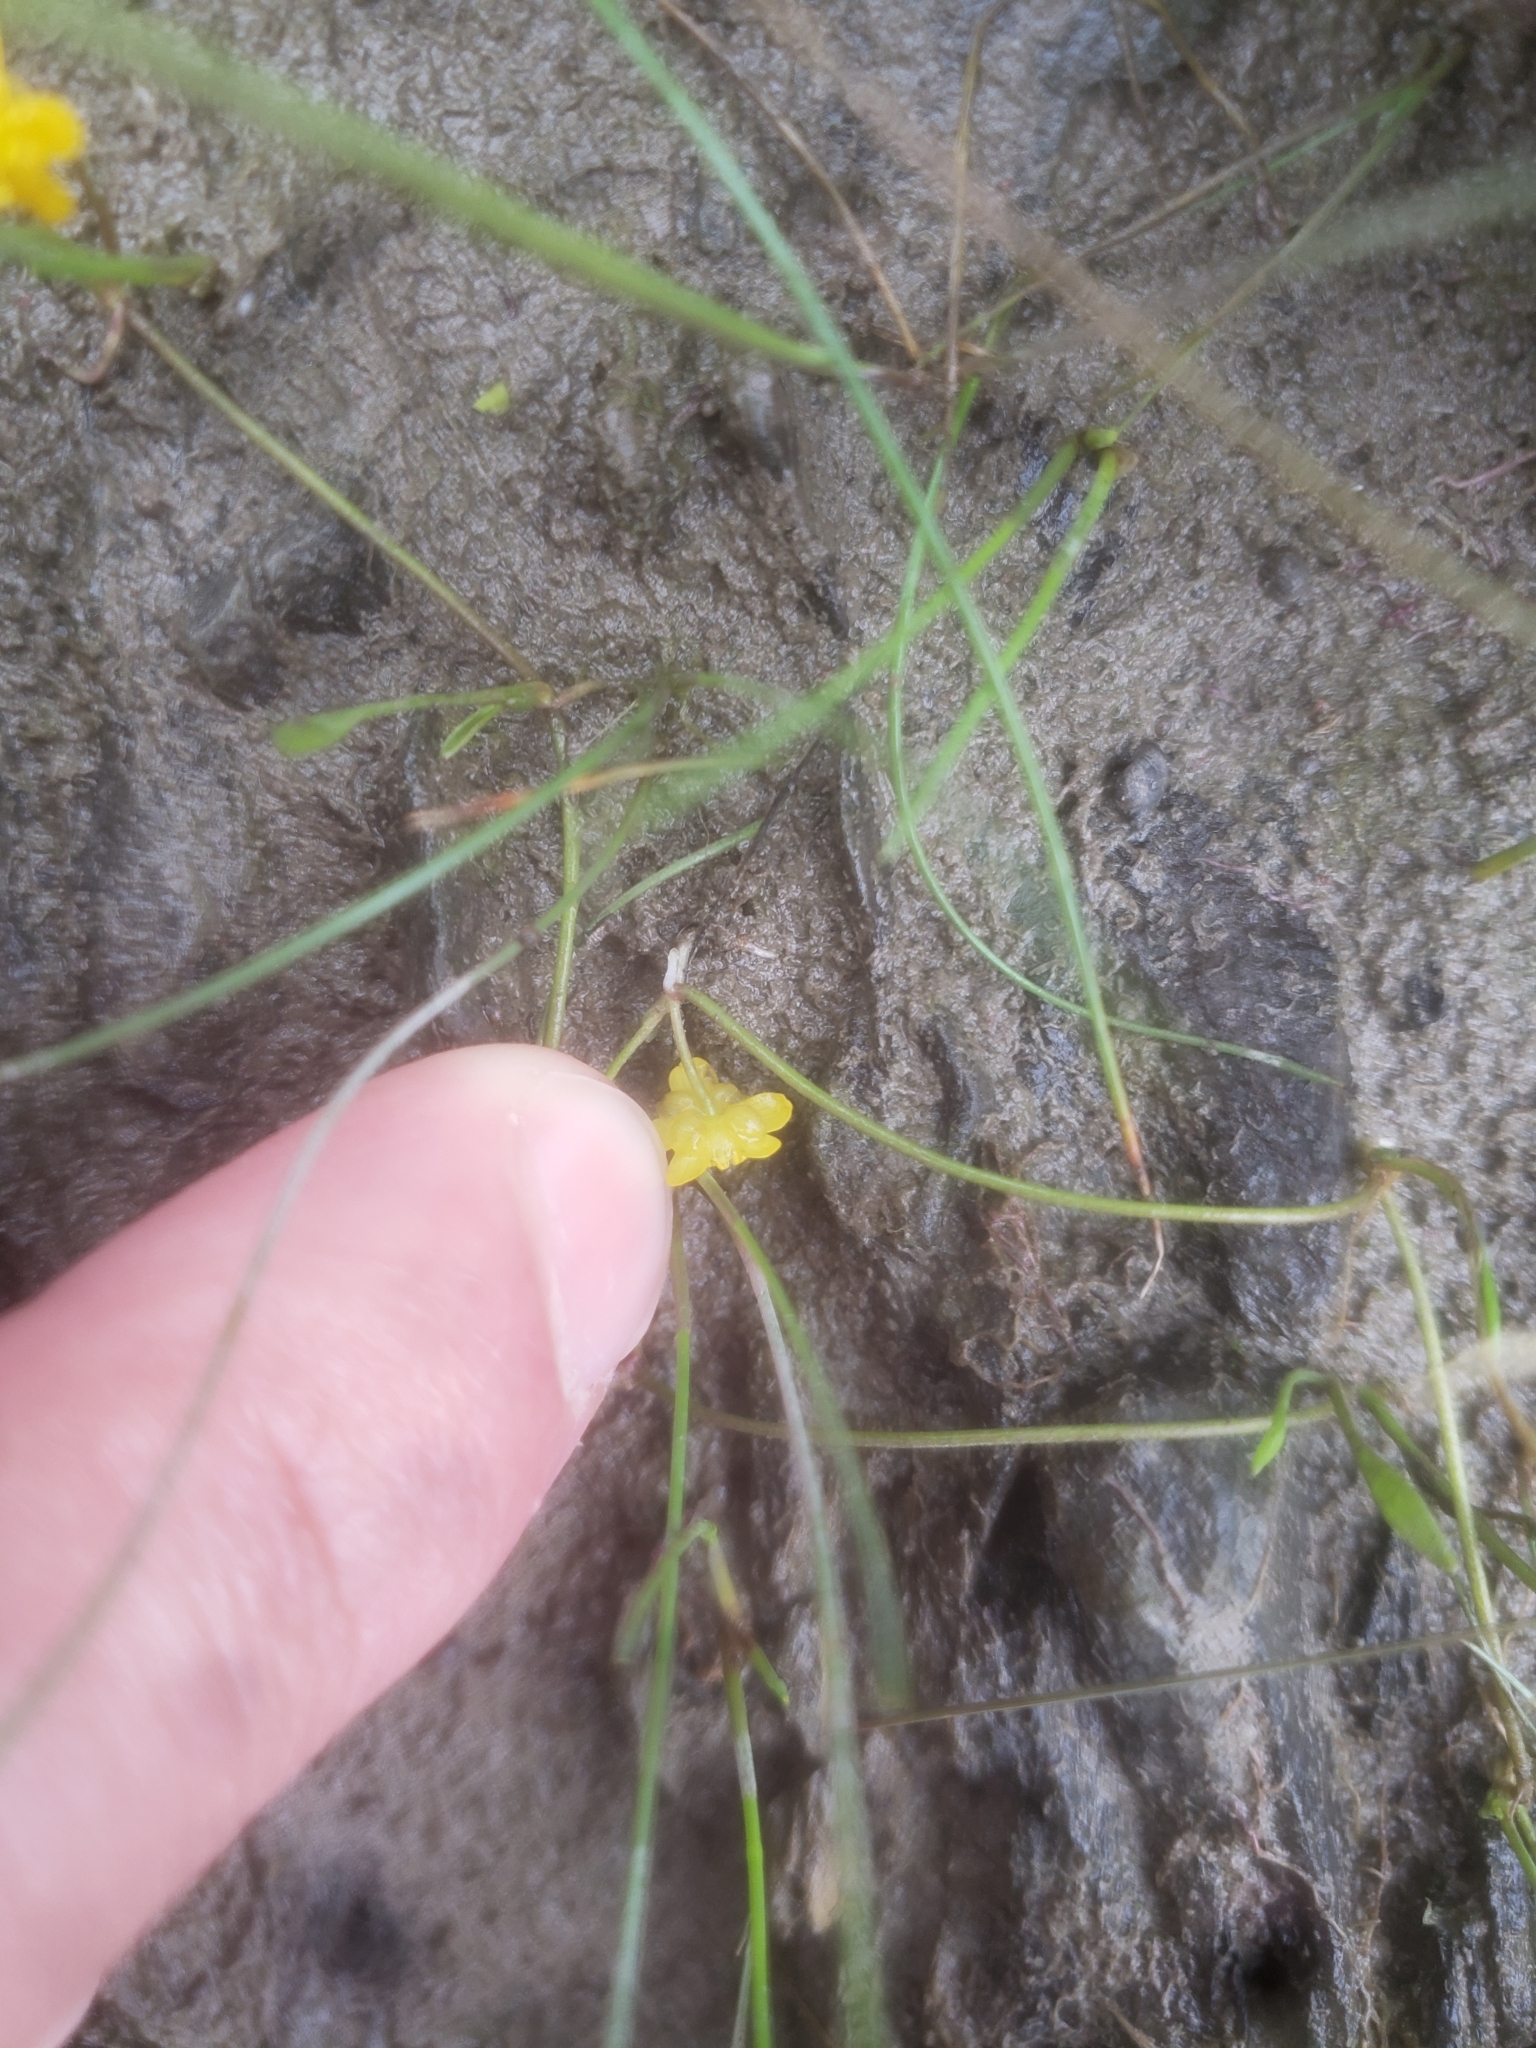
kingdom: Plantae
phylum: Tracheophyta
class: Magnoliopsida
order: Ranunculales
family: Ranunculaceae
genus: Ranunculus
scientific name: Ranunculus reptans
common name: Creeping spearwort
